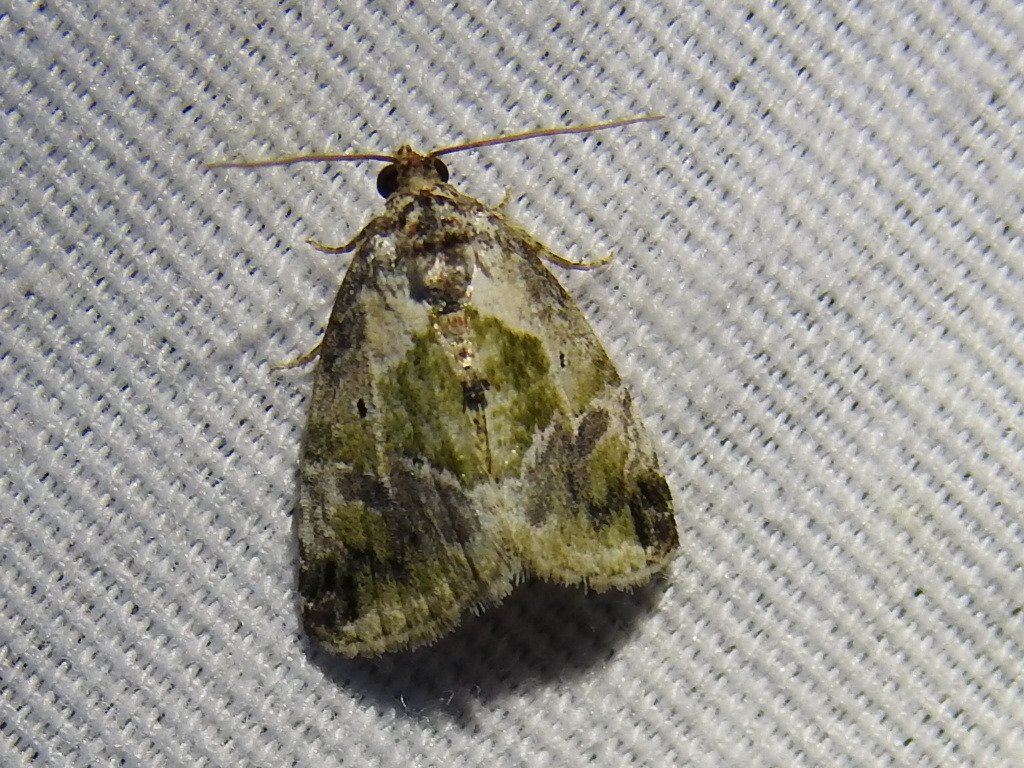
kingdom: Animalia
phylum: Arthropoda
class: Insecta
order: Lepidoptera
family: Noctuidae
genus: Maliattha
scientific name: Maliattha synochitis
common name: Black-dotted glyph
